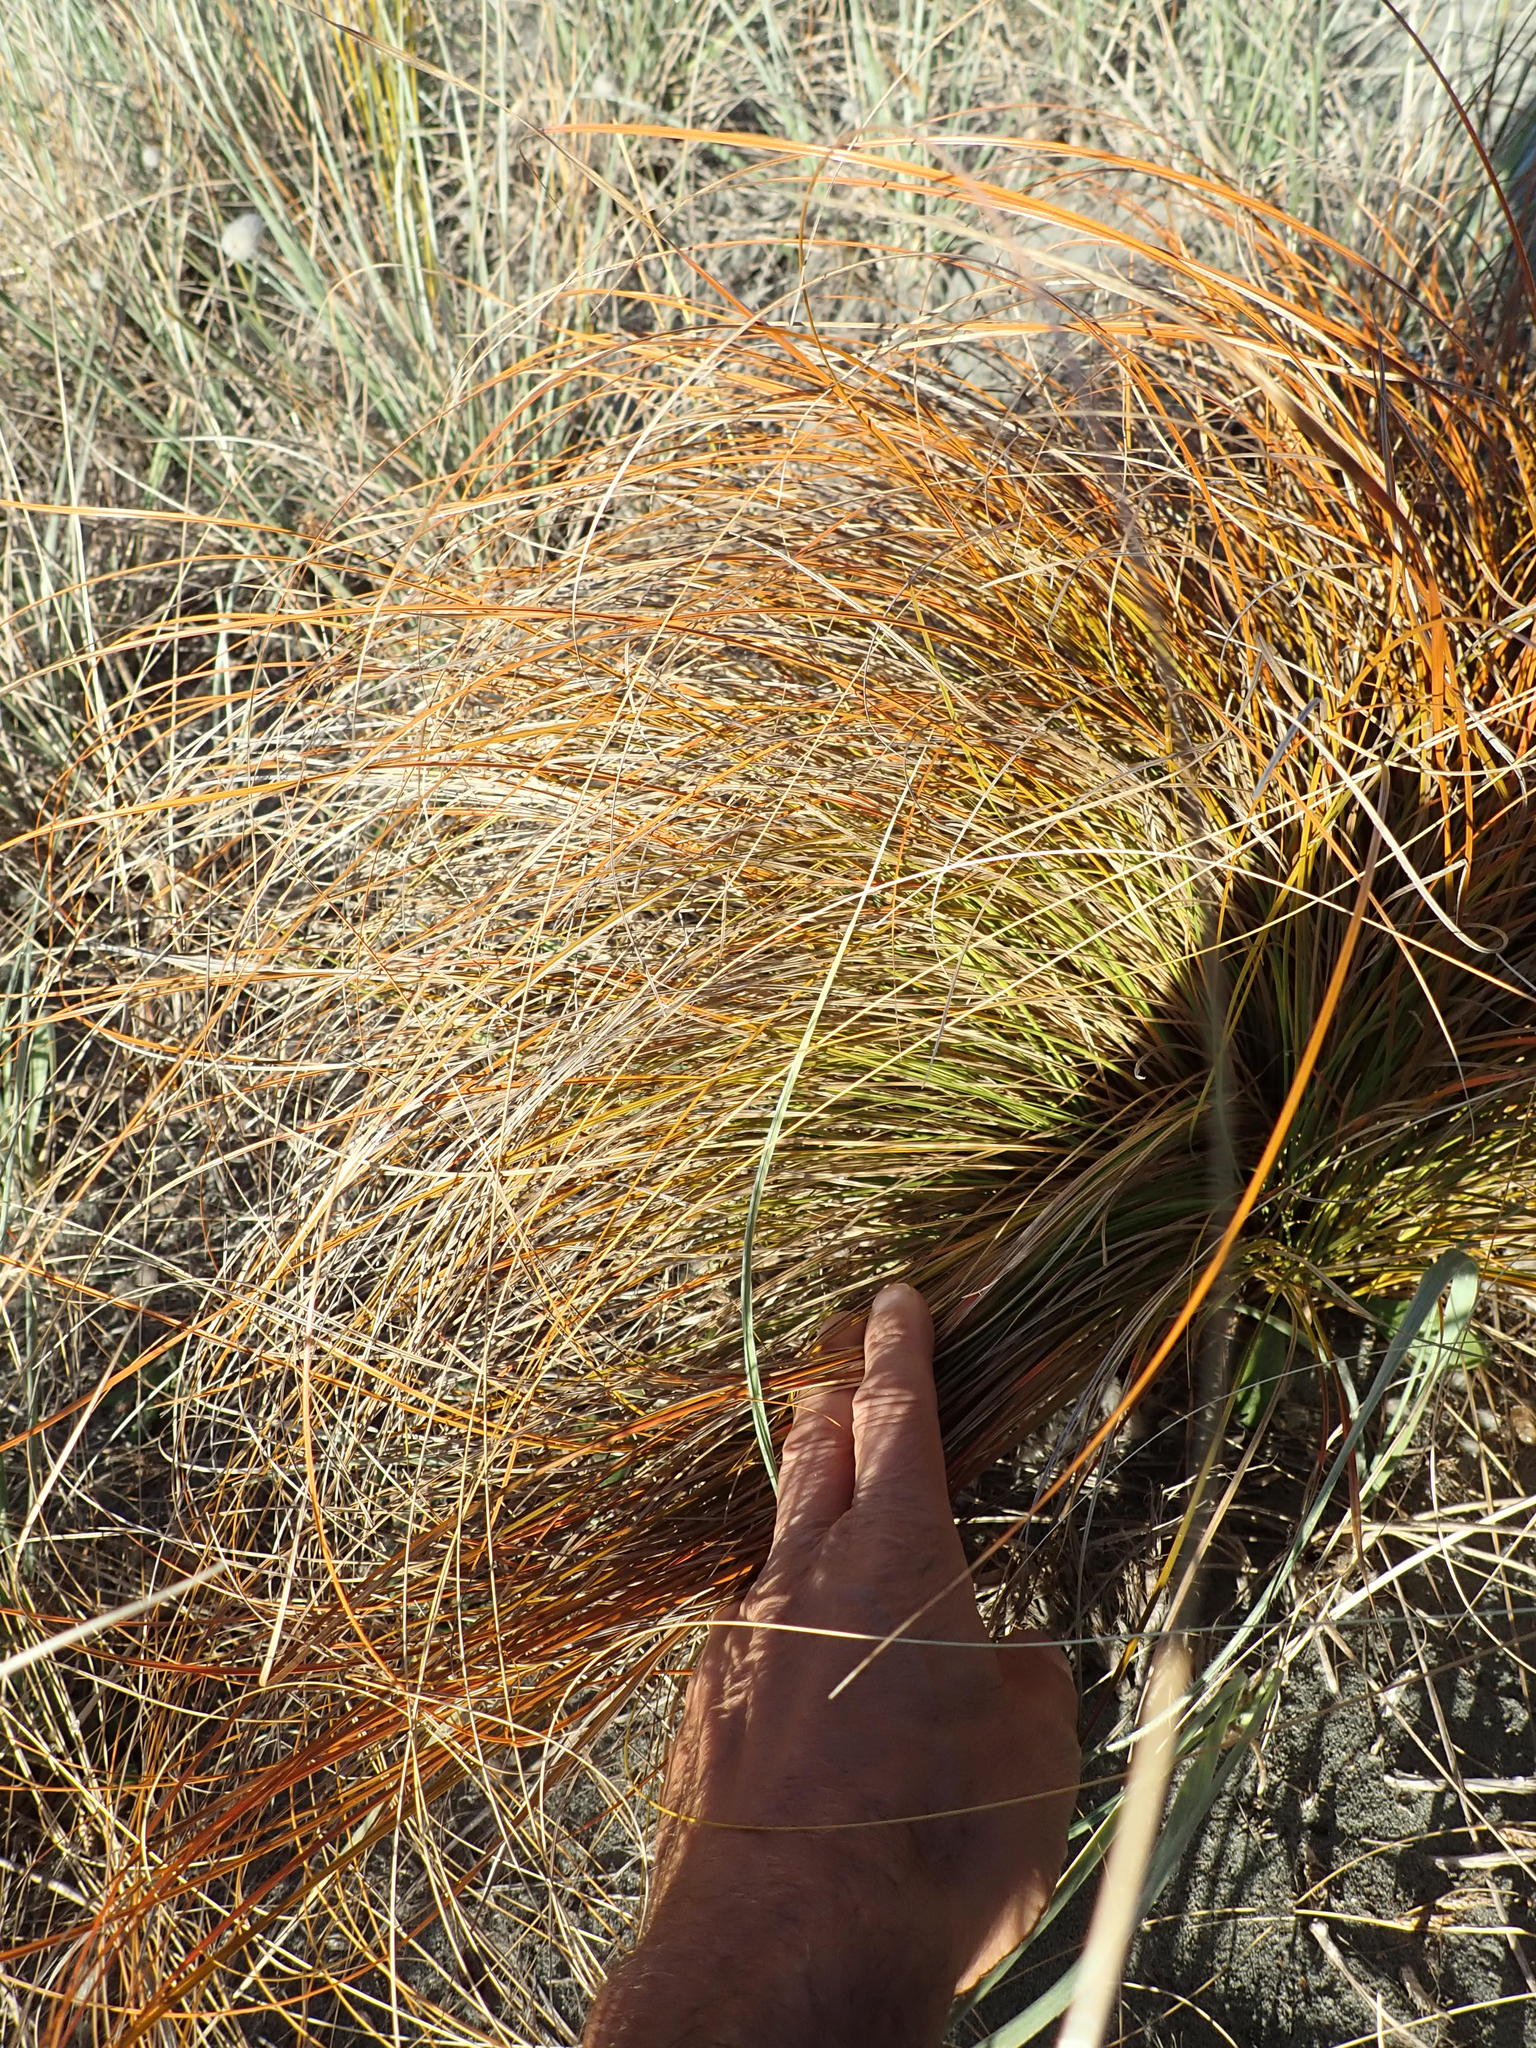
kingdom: Plantae
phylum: Tracheophyta
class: Liliopsida
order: Poales
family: Cyperaceae
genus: Carex
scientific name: Carex testacea
